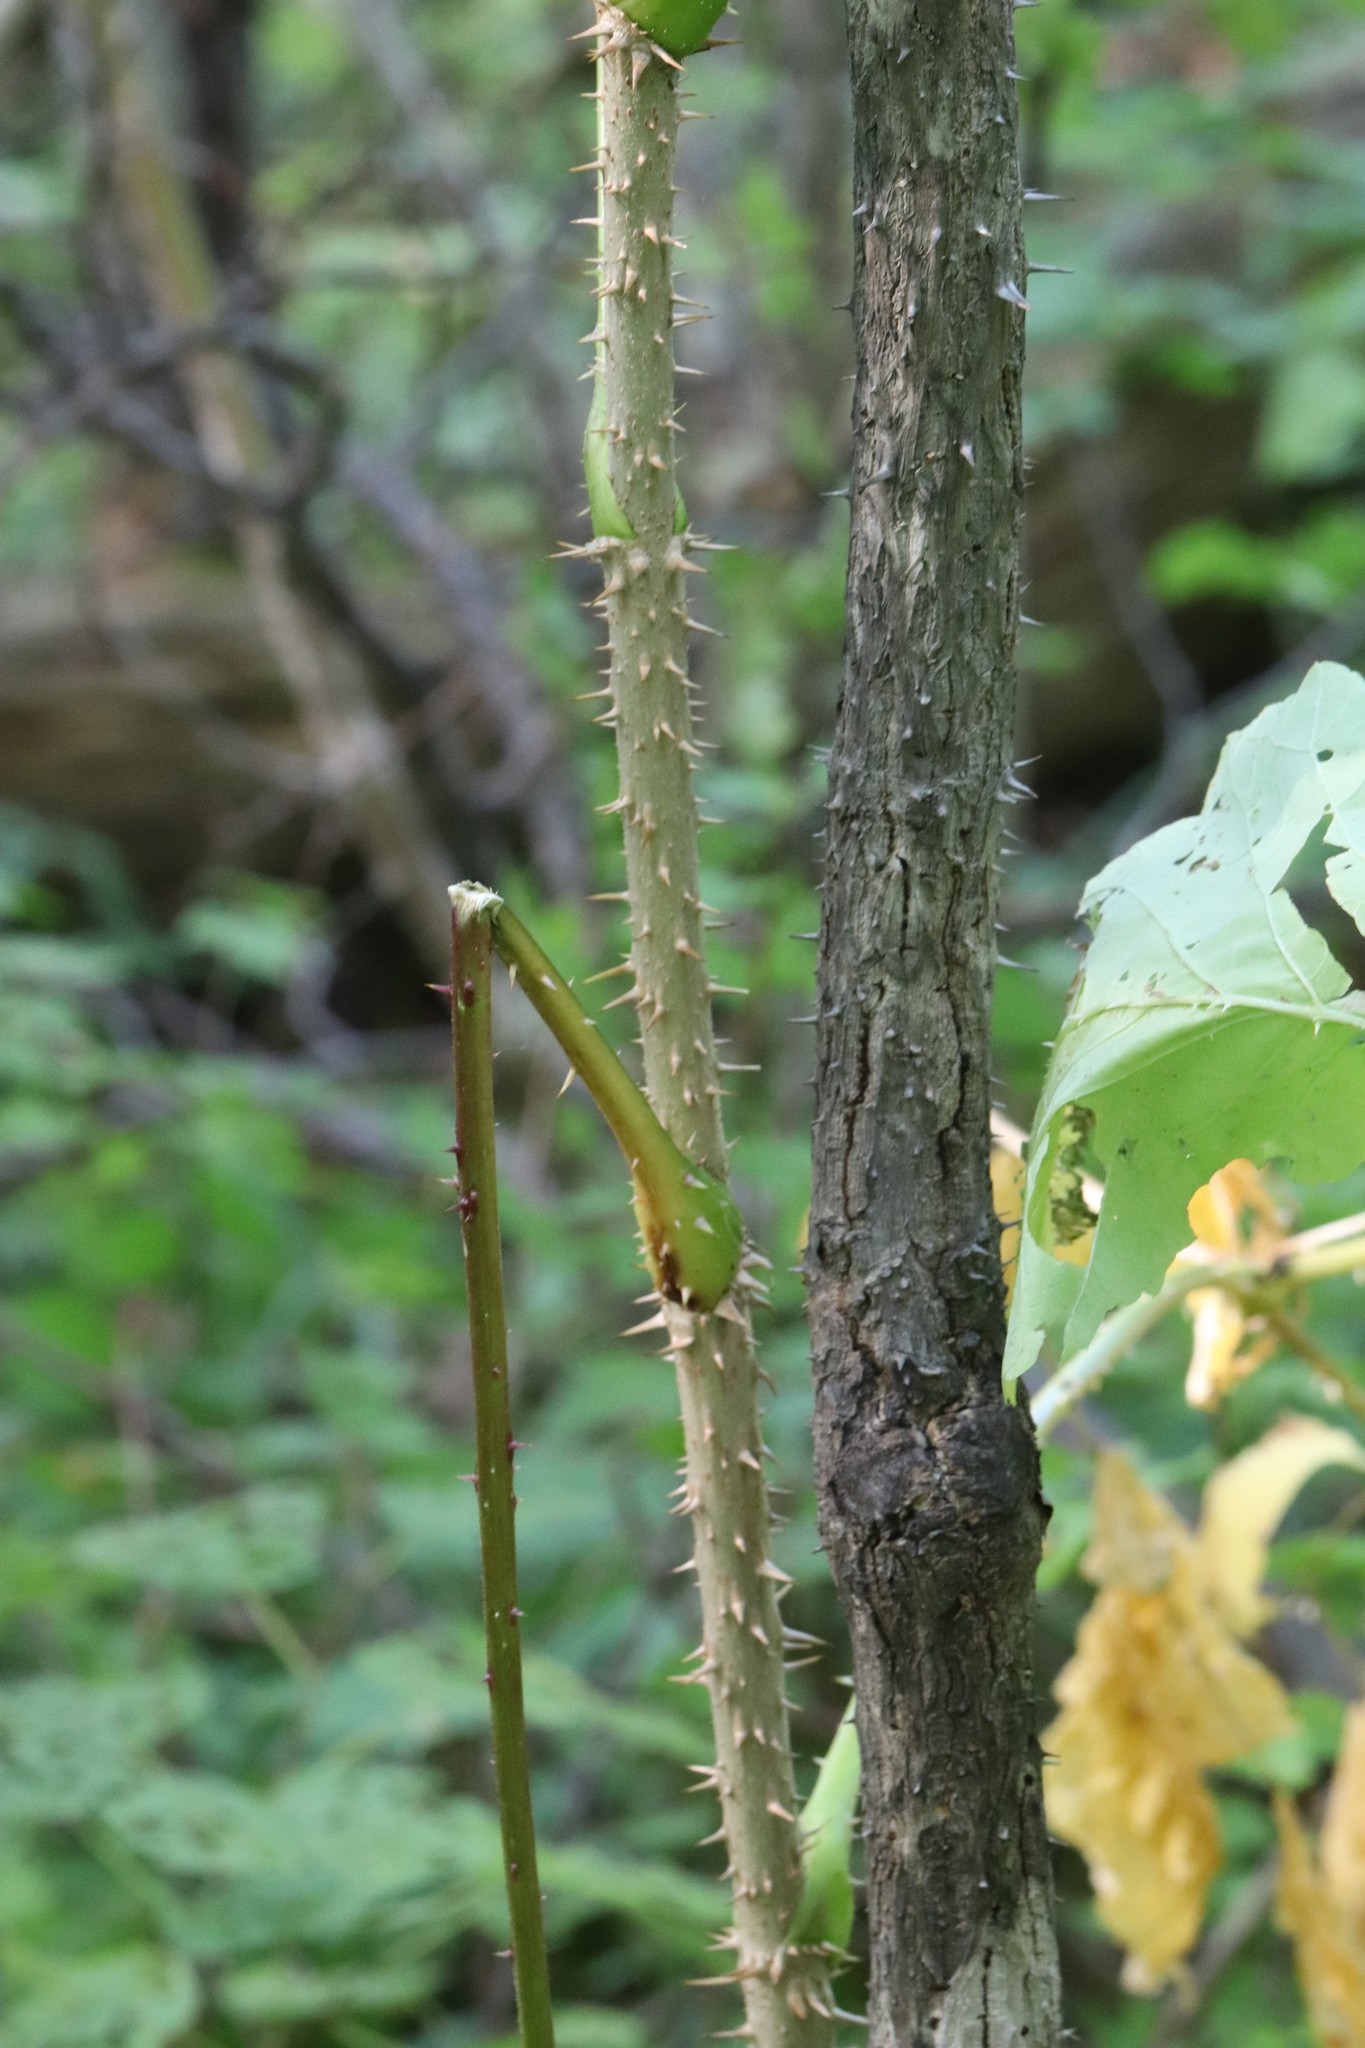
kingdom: Plantae
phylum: Tracheophyta
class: Magnoliopsida
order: Apiales
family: Araliaceae
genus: Aralia
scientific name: Aralia elata
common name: Japanese angelica-tree
